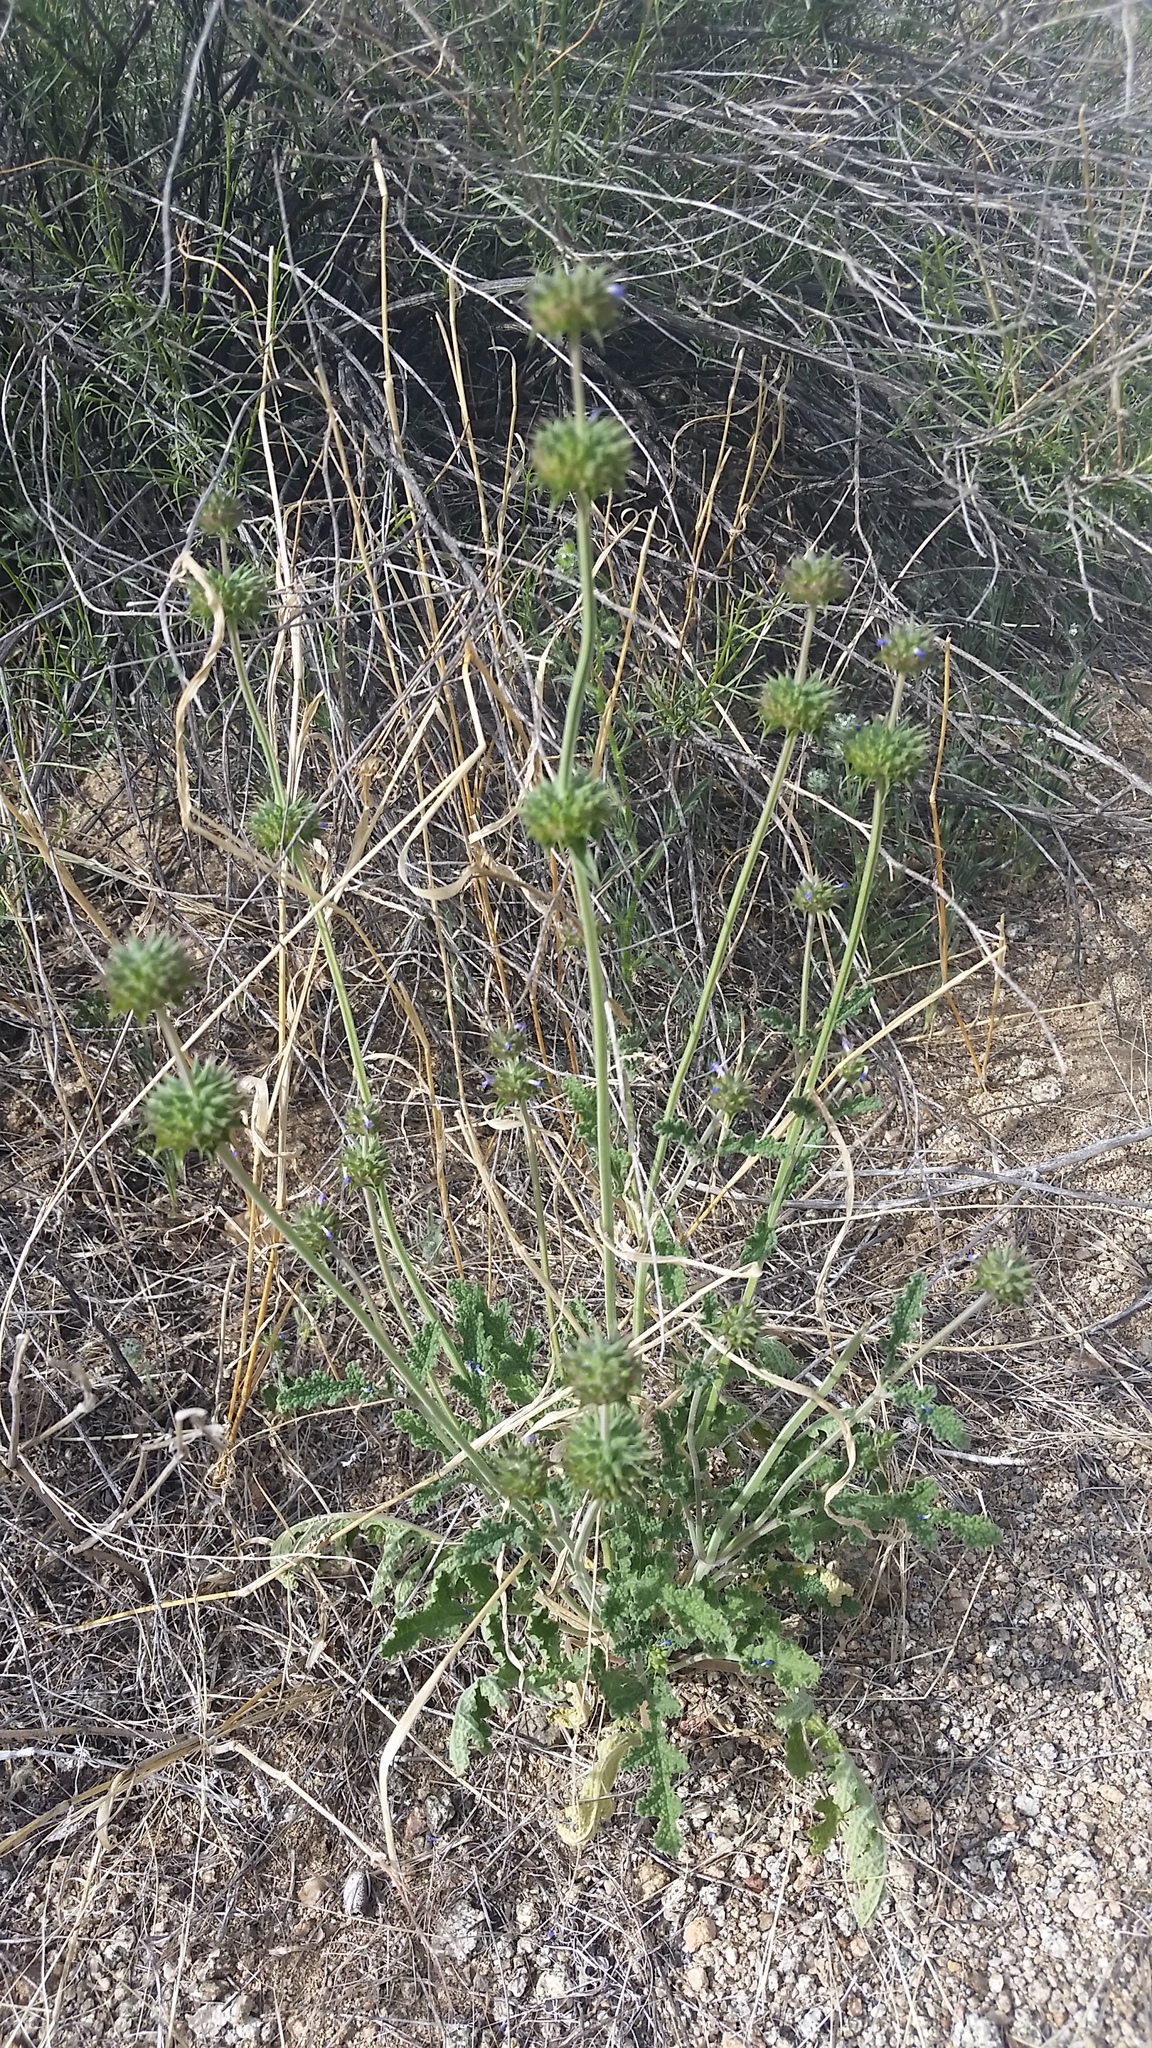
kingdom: Plantae
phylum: Tracheophyta
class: Magnoliopsida
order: Lamiales
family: Lamiaceae
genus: Salvia
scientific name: Salvia columbariae
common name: Chia
